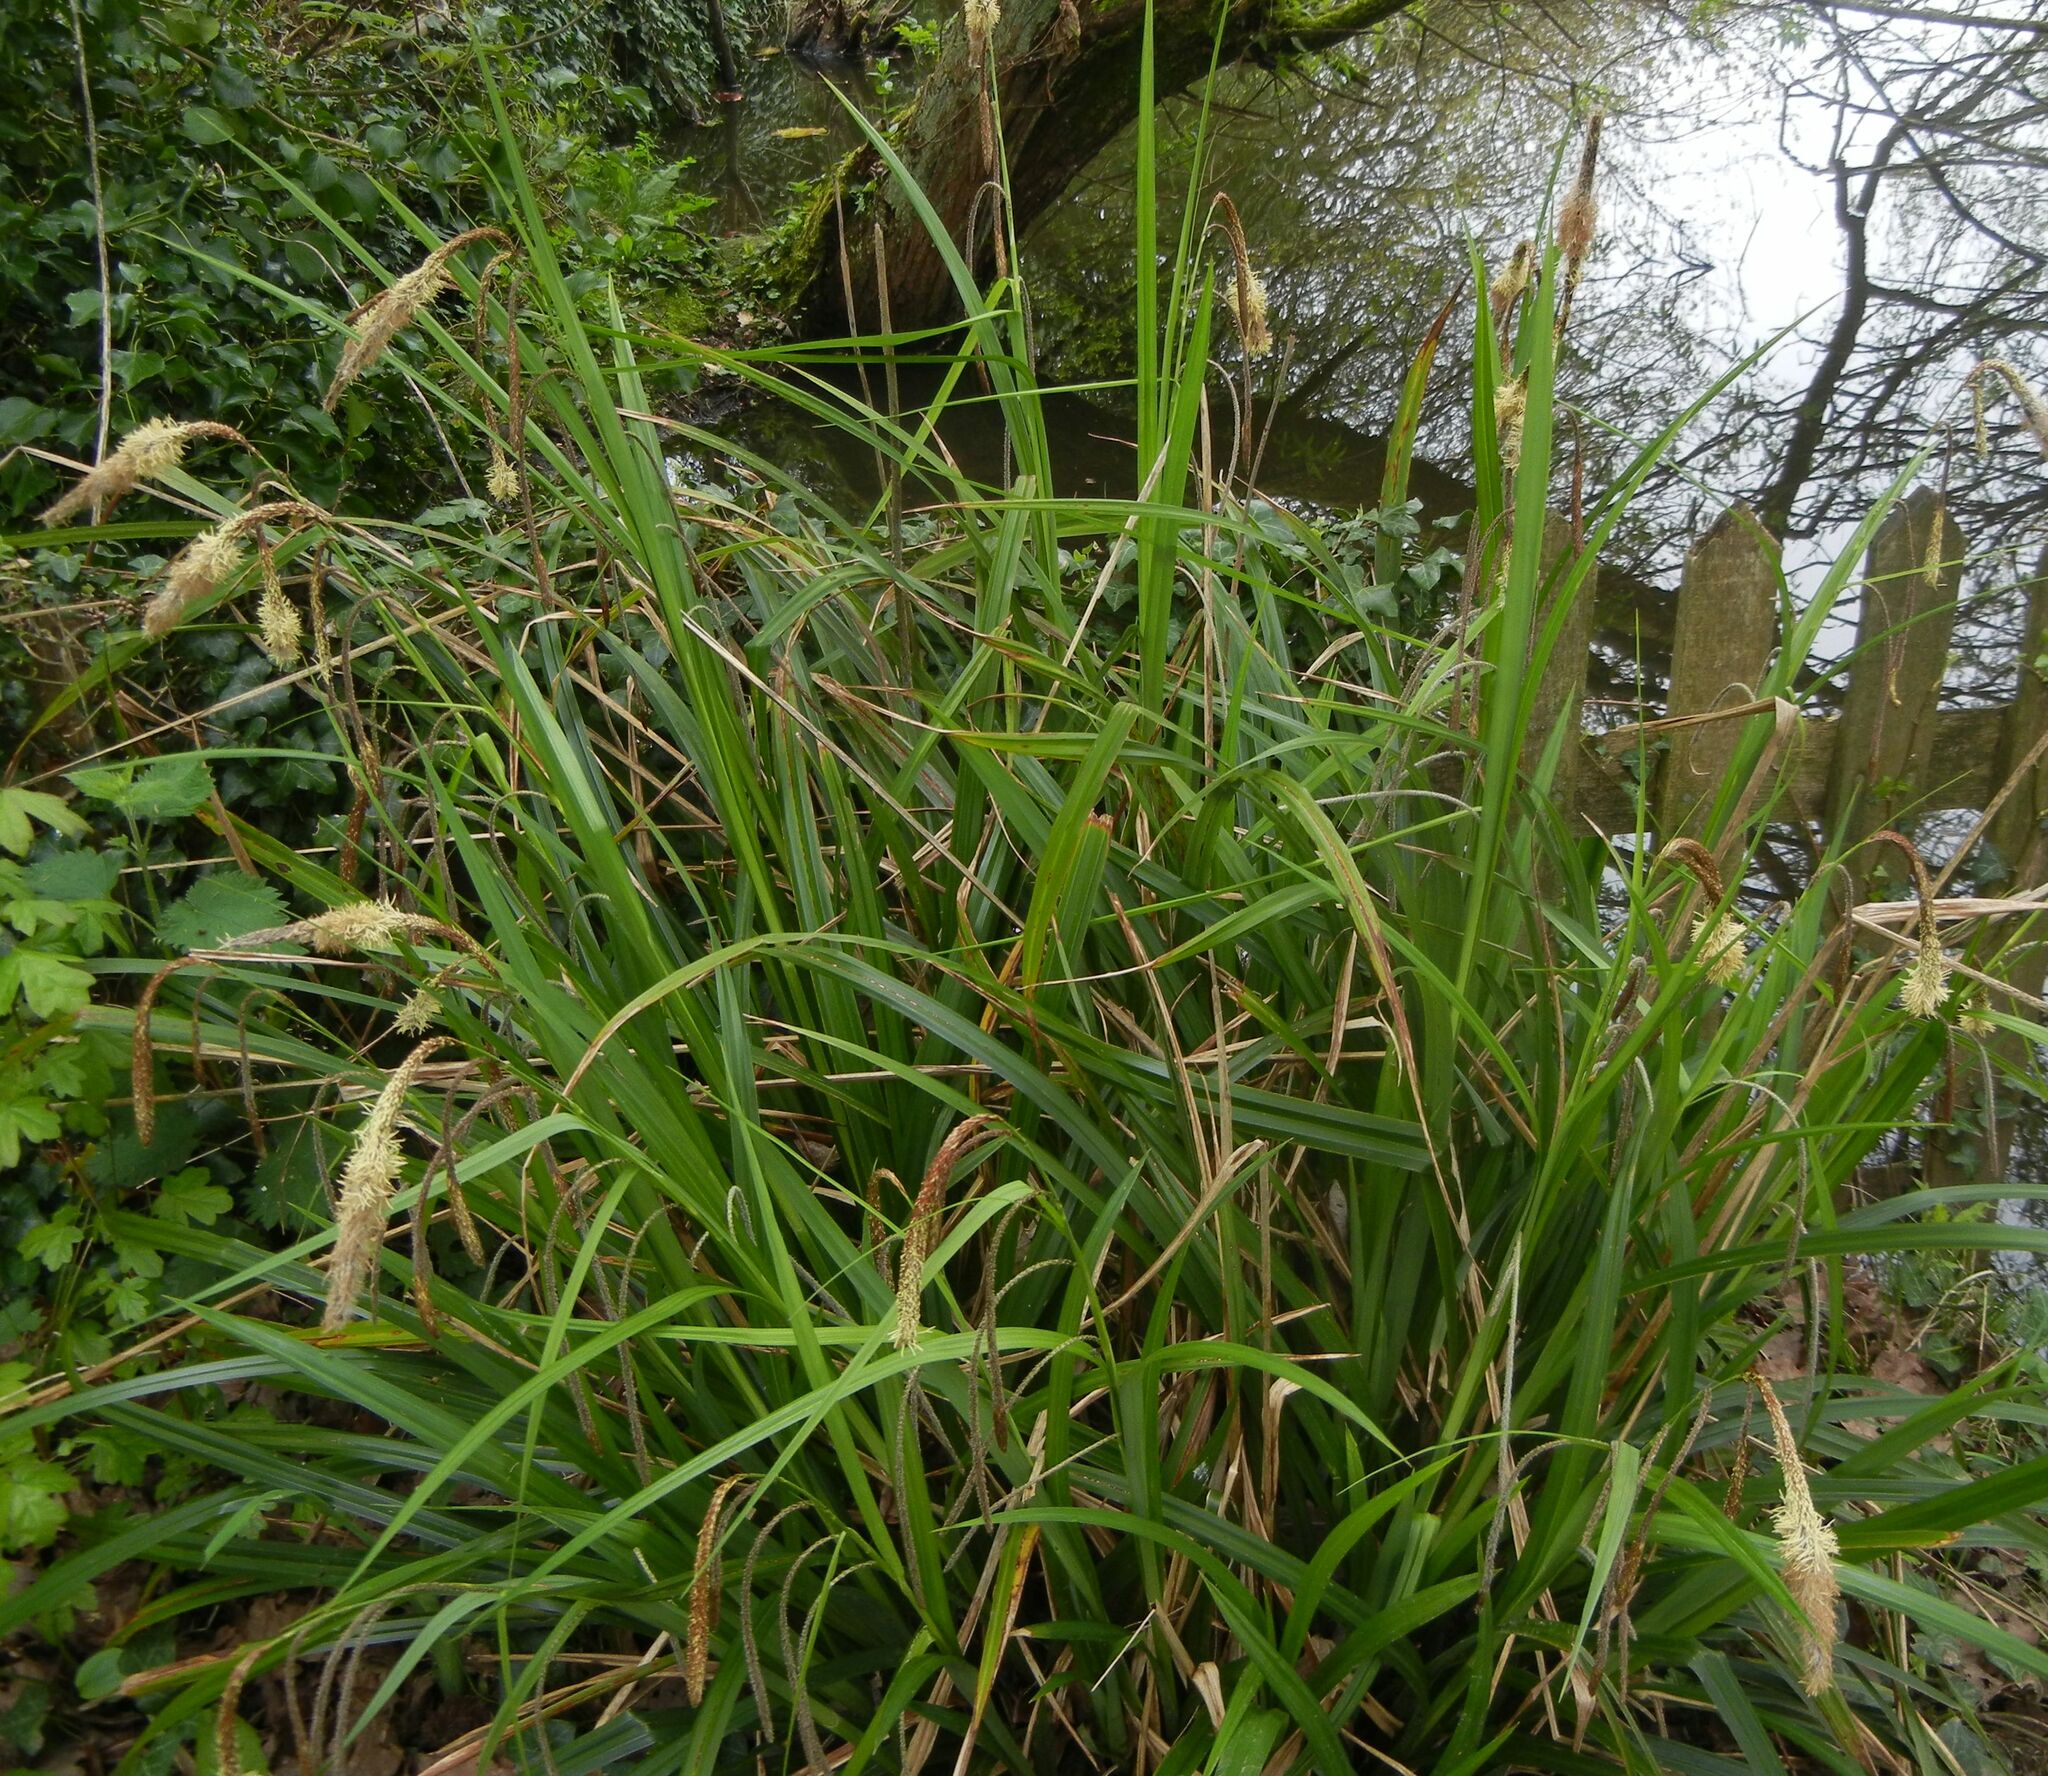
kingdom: Plantae
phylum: Tracheophyta
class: Liliopsida
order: Poales
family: Cyperaceae
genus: Carex
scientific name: Carex pendula
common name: Pendulous sedge
